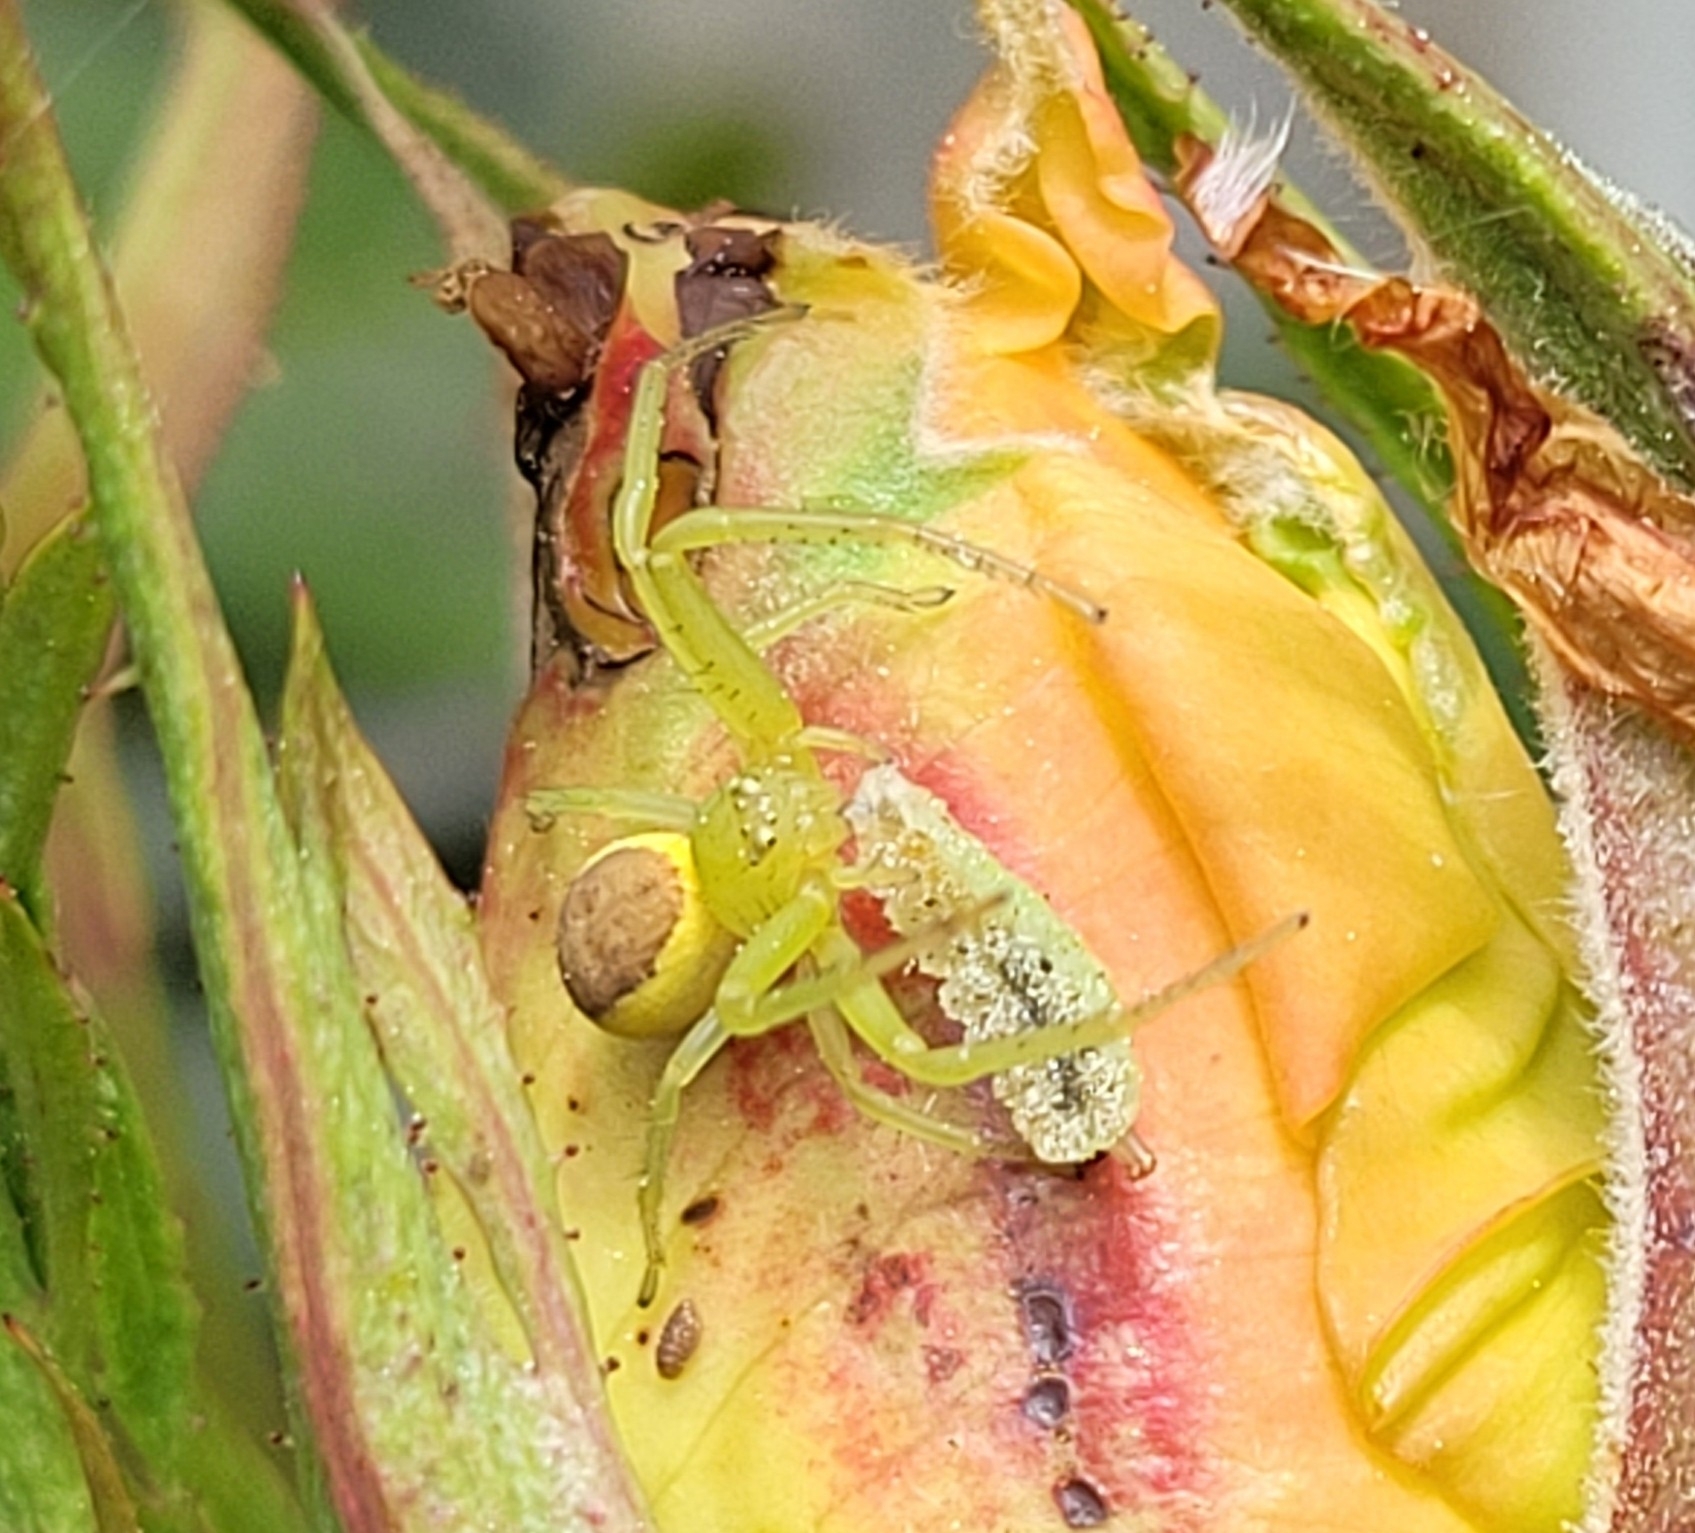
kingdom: Animalia
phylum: Arthropoda
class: Arachnida
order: Araneae
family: Thomisidae
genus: Diaea
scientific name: Diaea dorsata
